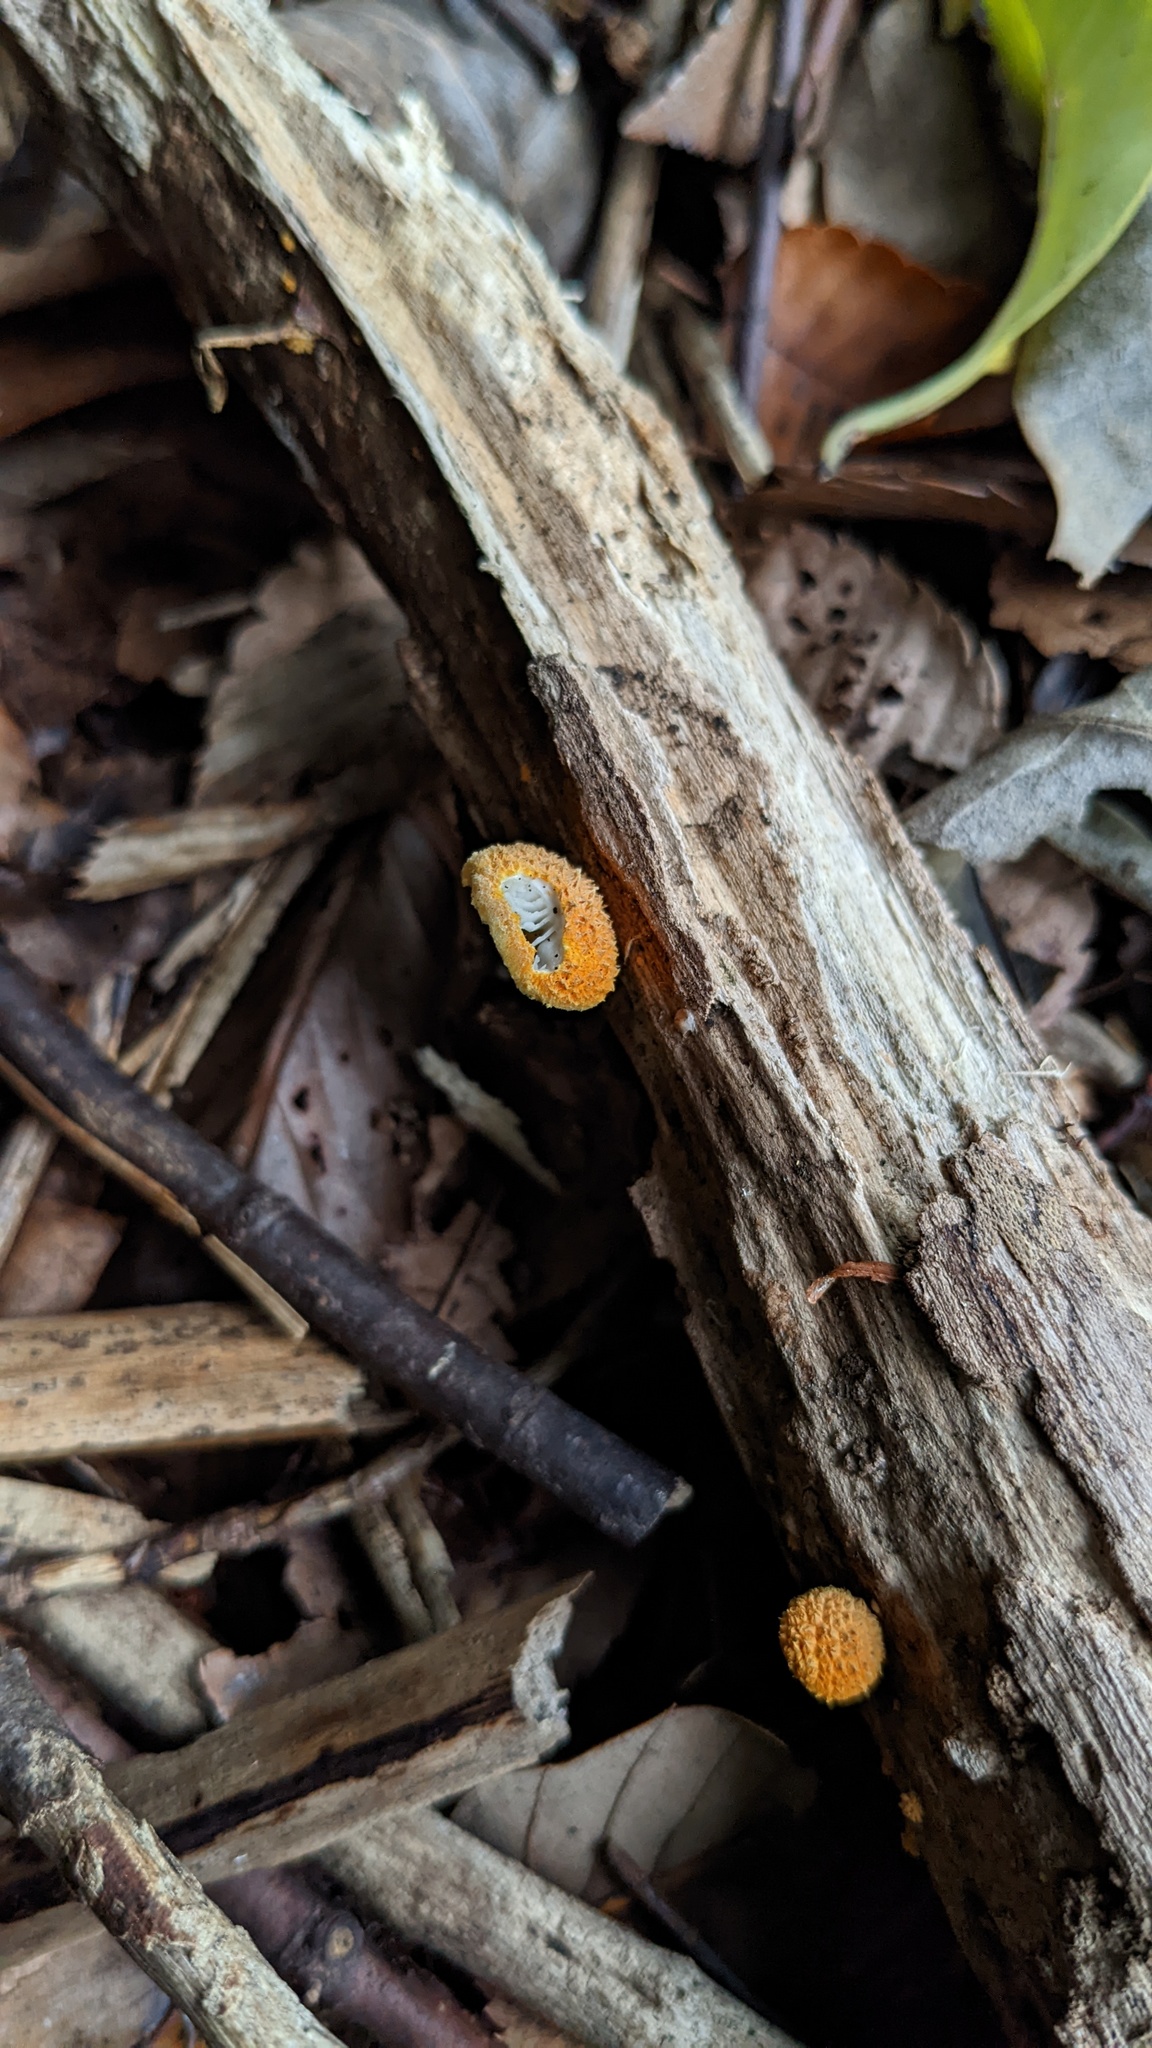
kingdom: Fungi
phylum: Basidiomycota
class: Agaricomycetes
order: Agaricales
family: Physalacriaceae
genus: Cyptotrama
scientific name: Cyptotrama asprata
